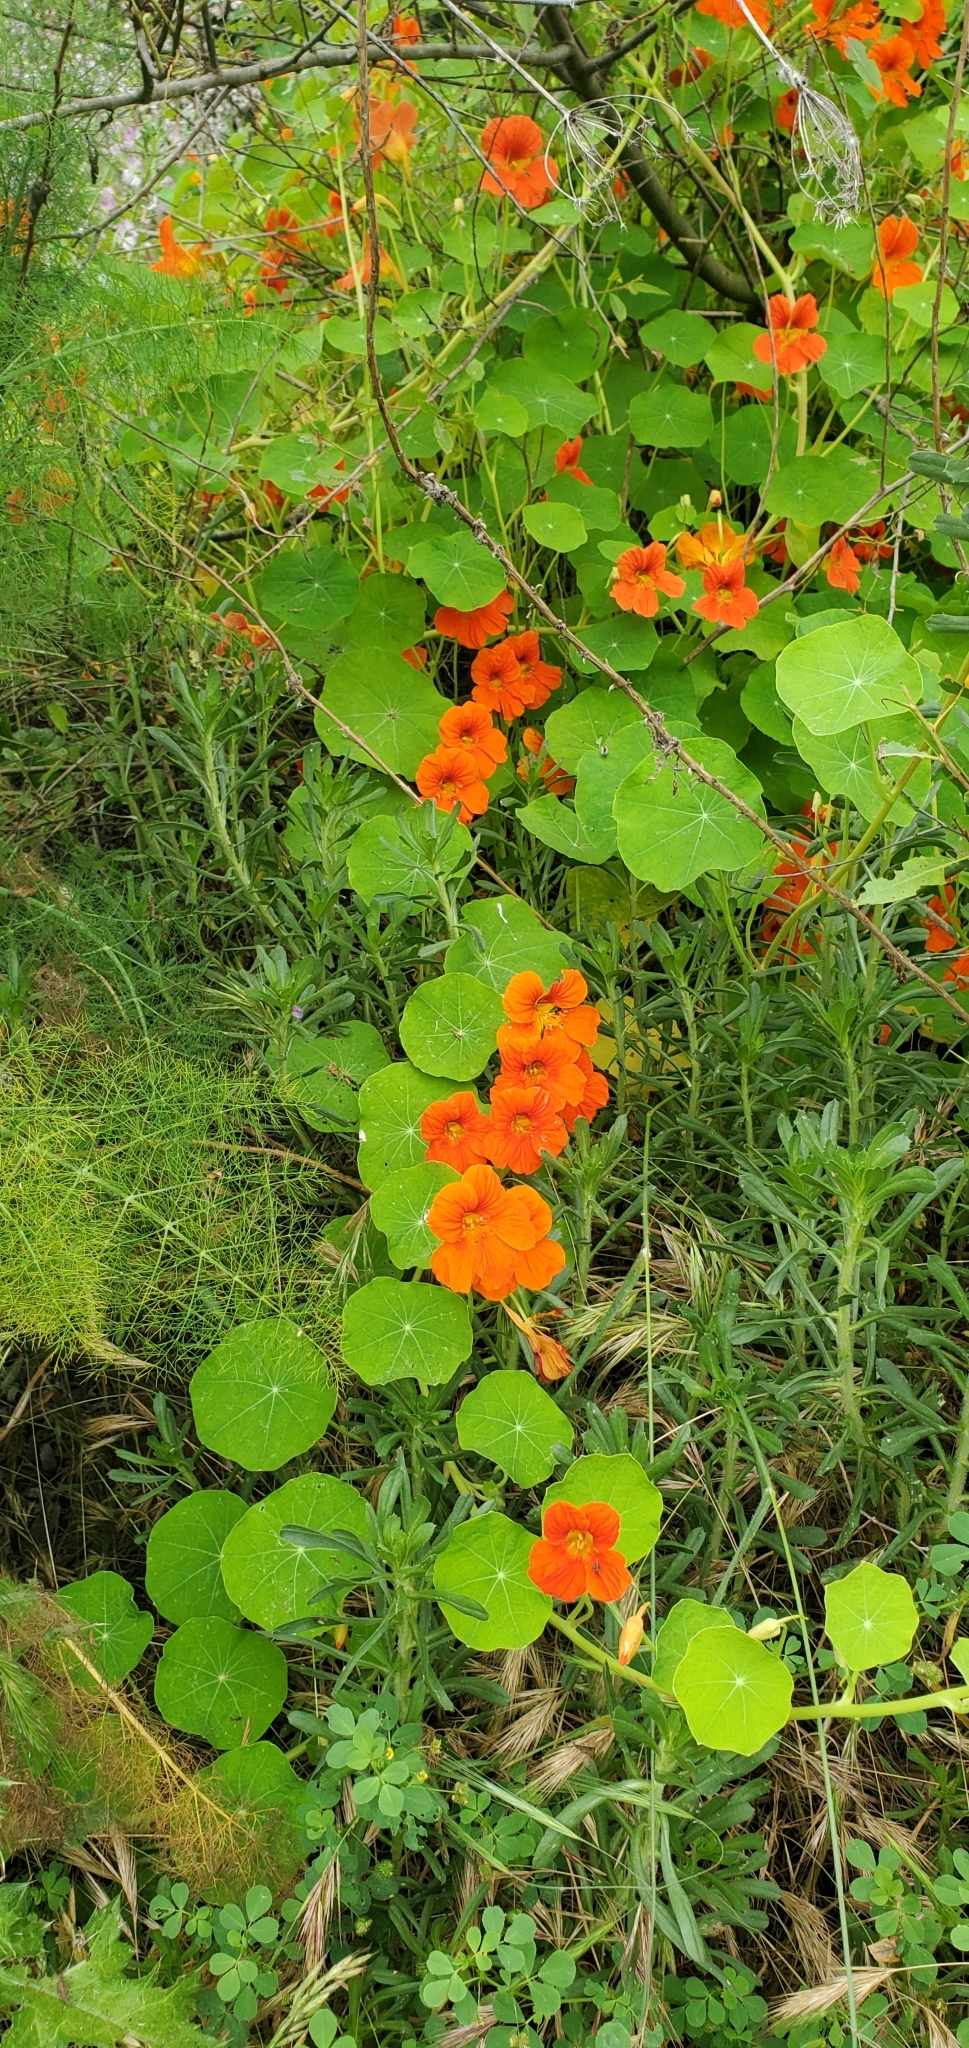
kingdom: Plantae
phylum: Tracheophyta
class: Magnoliopsida
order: Brassicales
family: Tropaeolaceae
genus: Tropaeolum
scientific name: Tropaeolum majus
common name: Nasturtium
